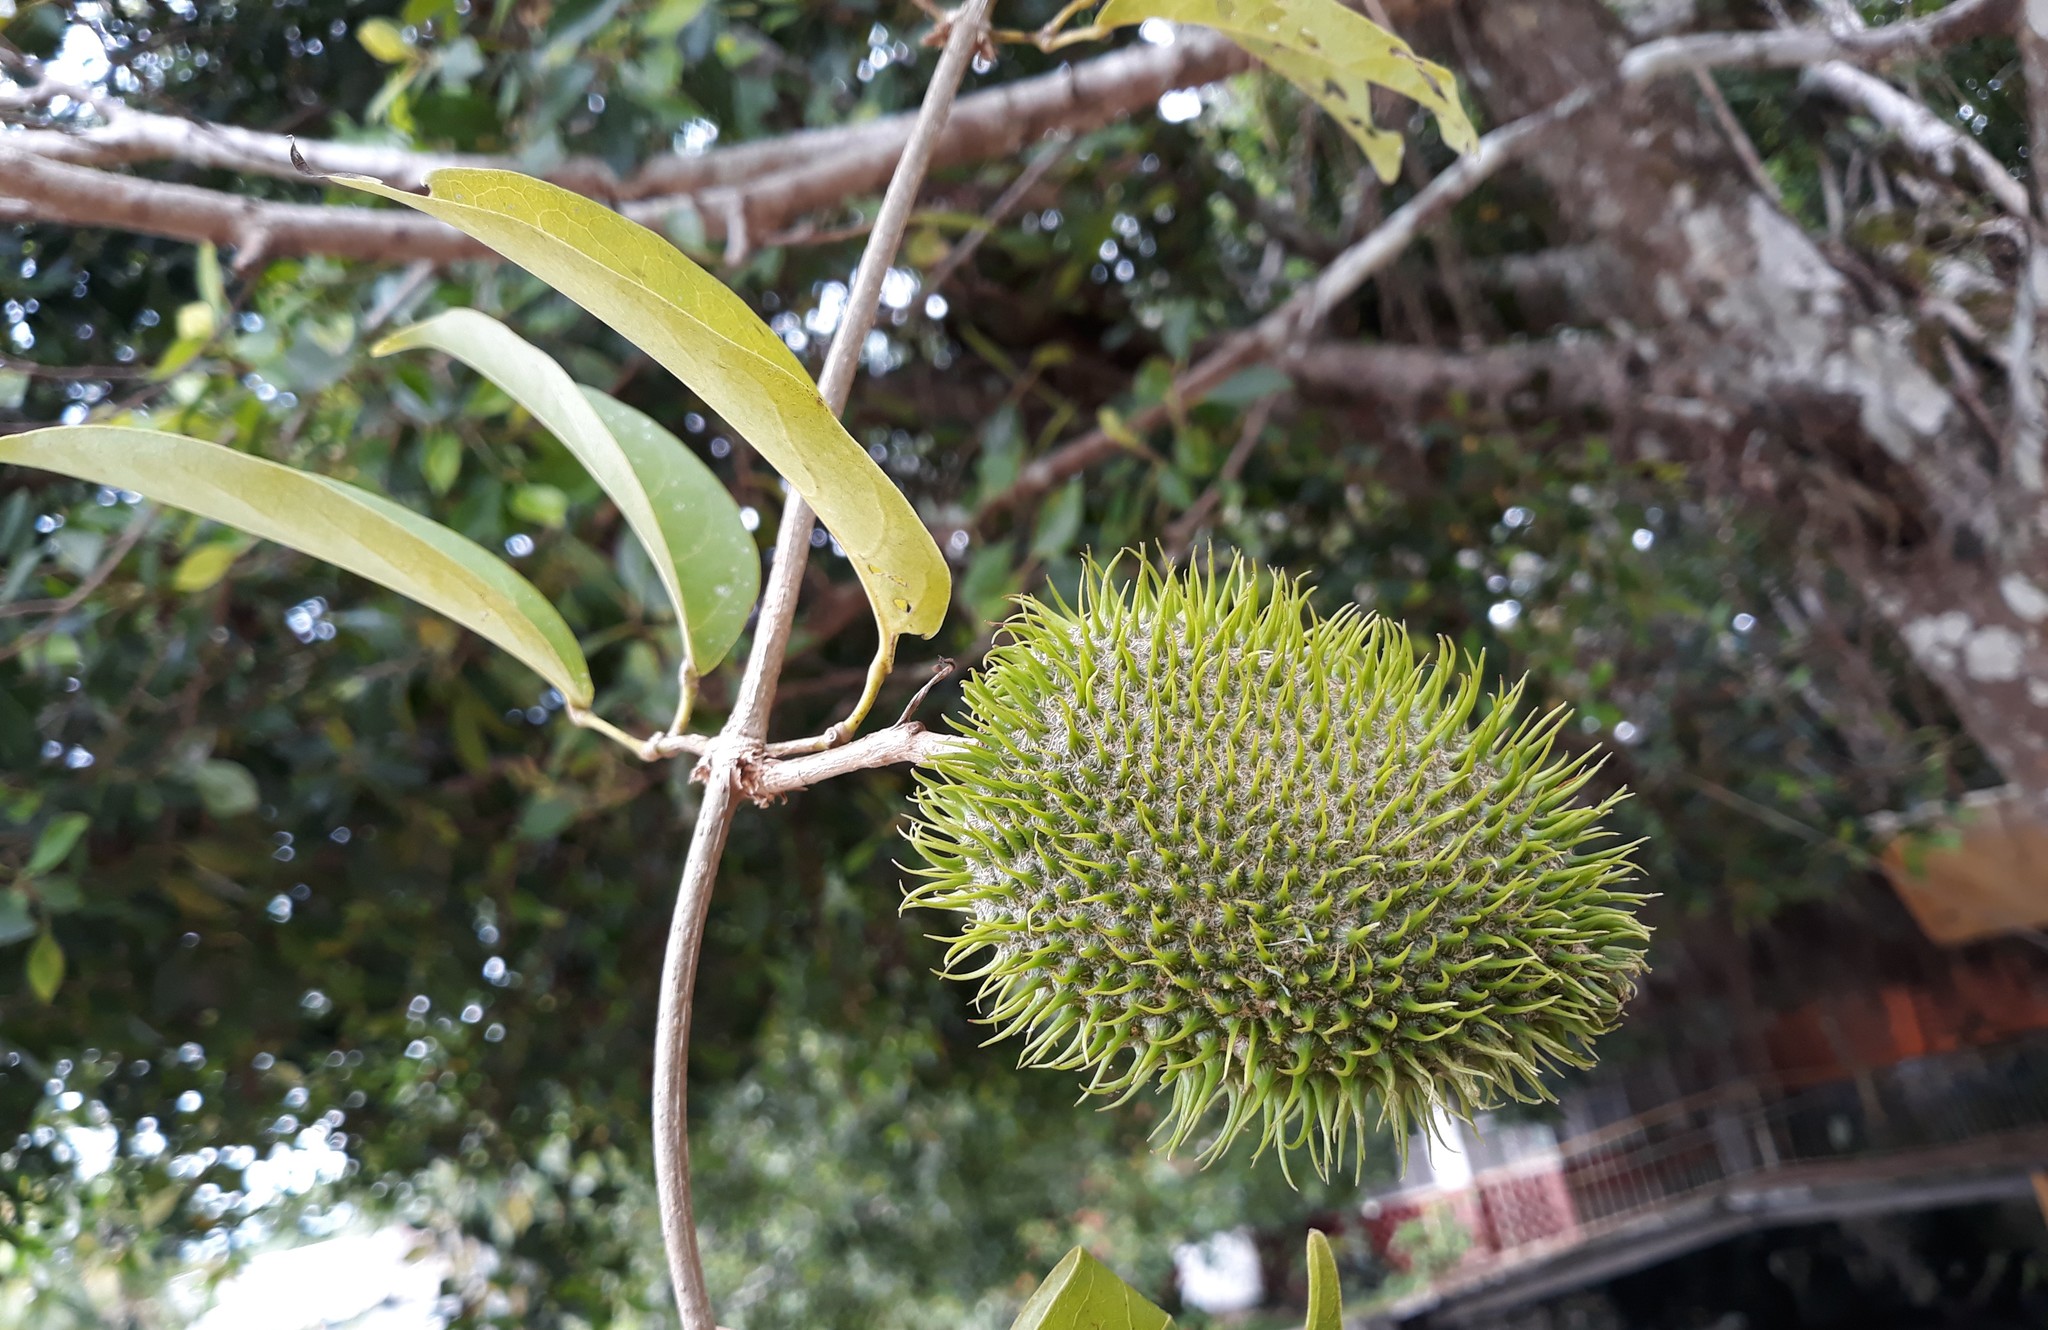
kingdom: Plantae
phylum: Tracheophyta
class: Magnoliopsida
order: Lamiales
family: Bignoniaceae
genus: Bignonia
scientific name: Bignonia binata
